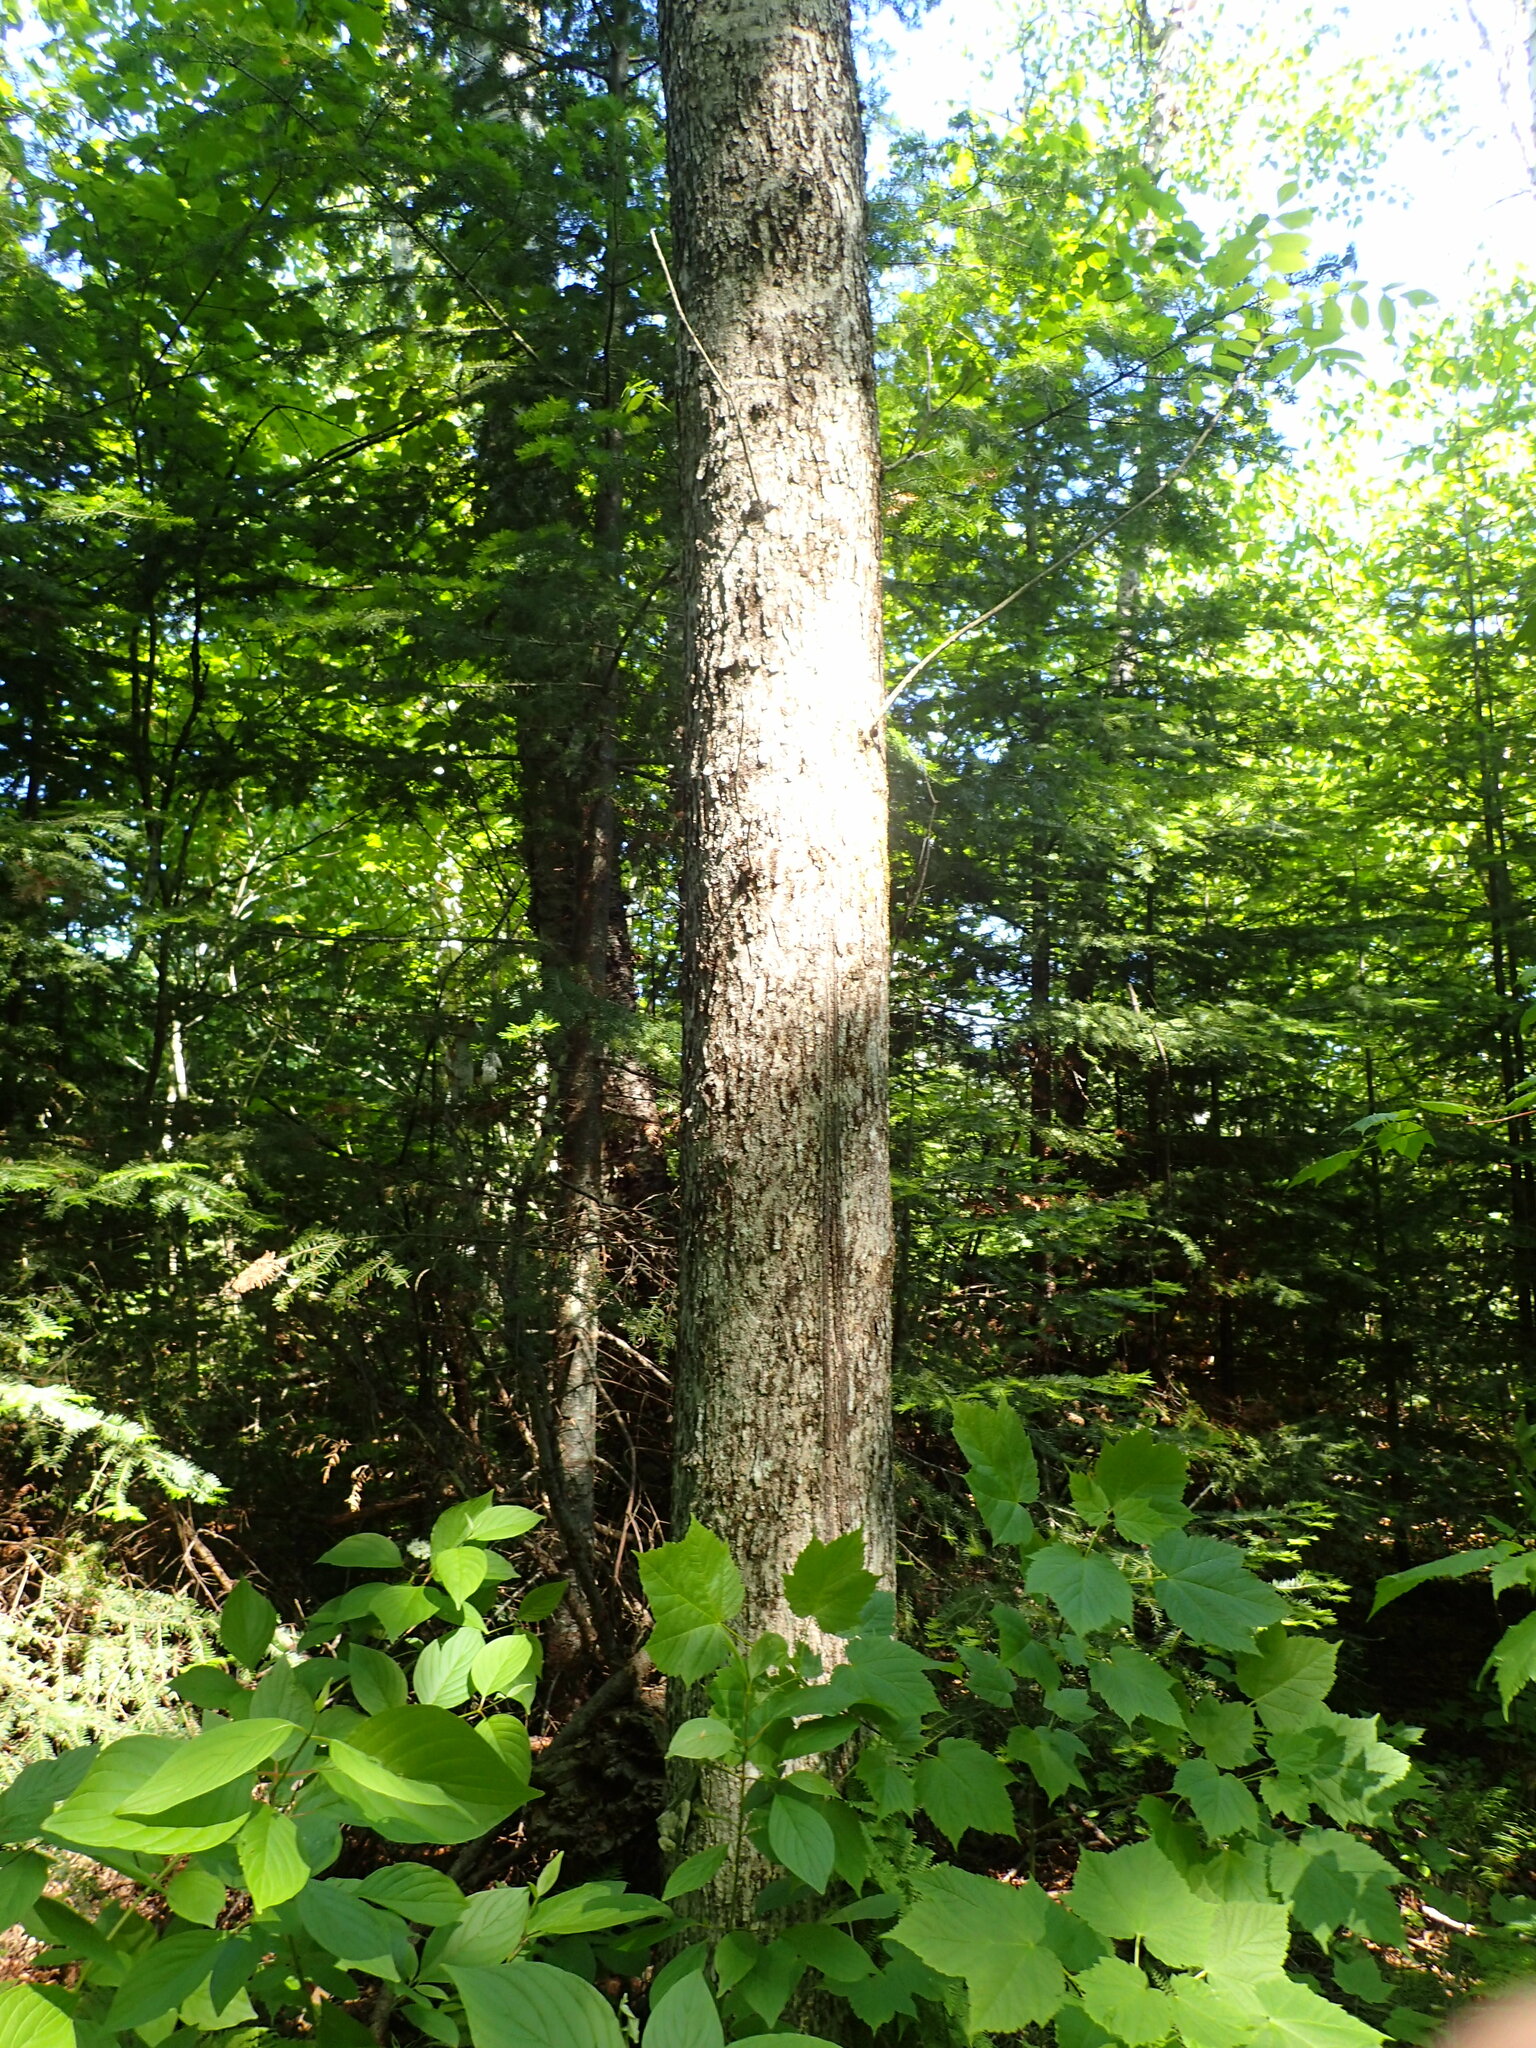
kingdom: Plantae
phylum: Tracheophyta
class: Magnoliopsida
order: Lamiales
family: Oleaceae
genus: Fraxinus
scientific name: Fraxinus nigra
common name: Black ash
